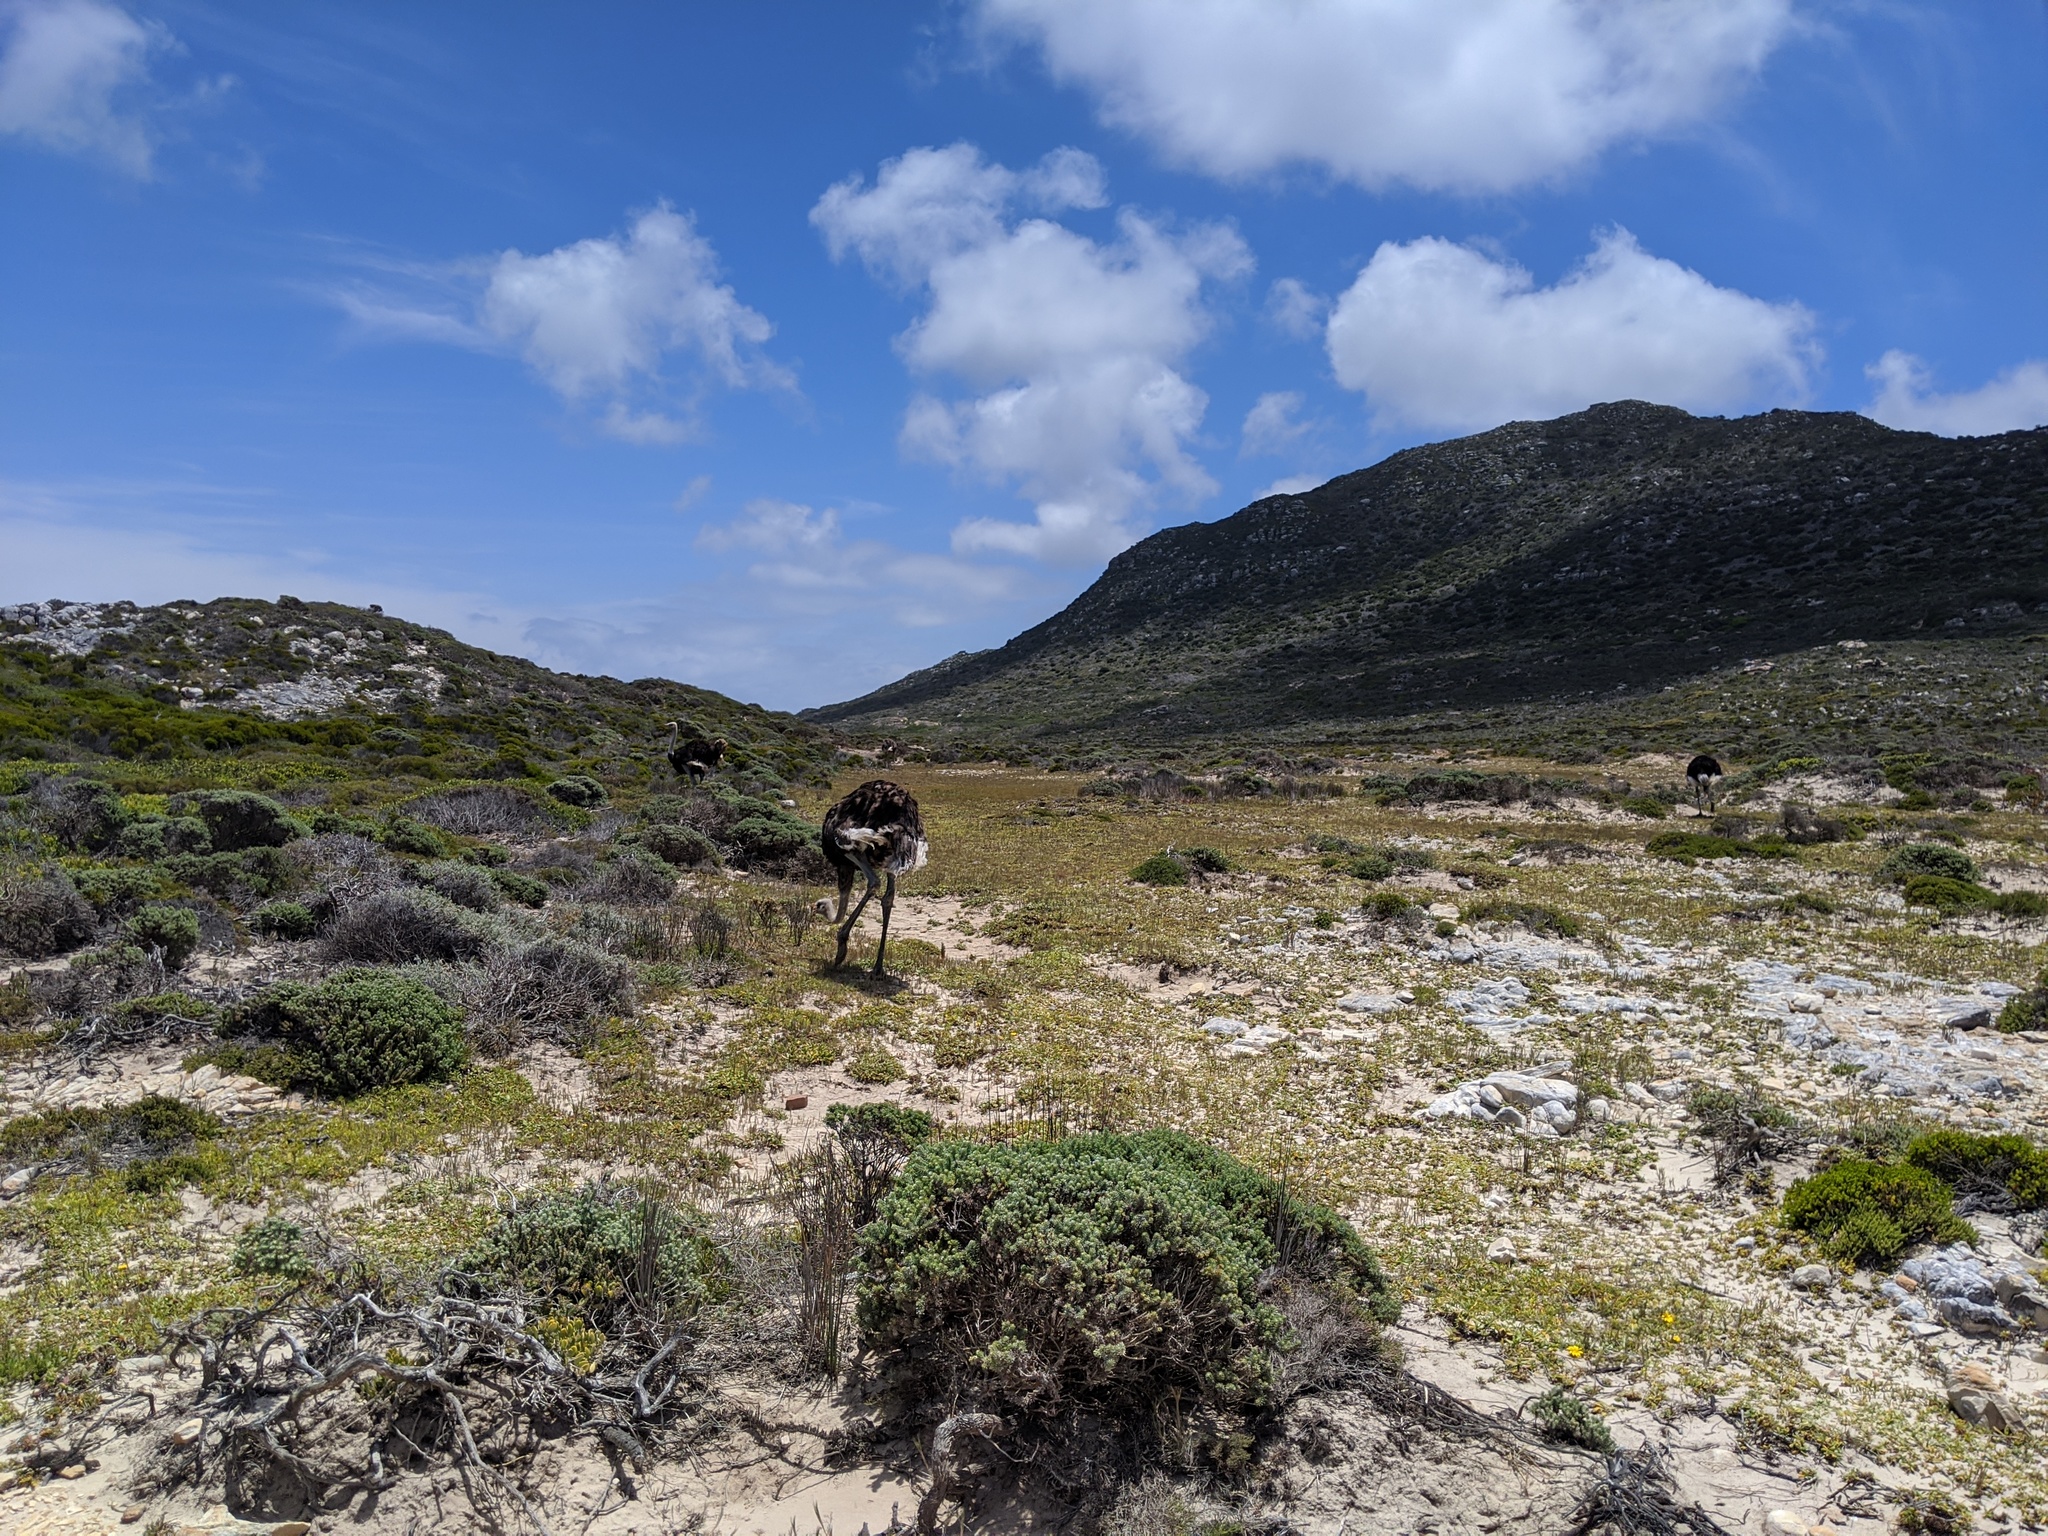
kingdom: Animalia
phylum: Chordata
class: Aves
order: Struthioniformes
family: Struthionidae
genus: Struthio
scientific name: Struthio camelus
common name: Common ostrich
